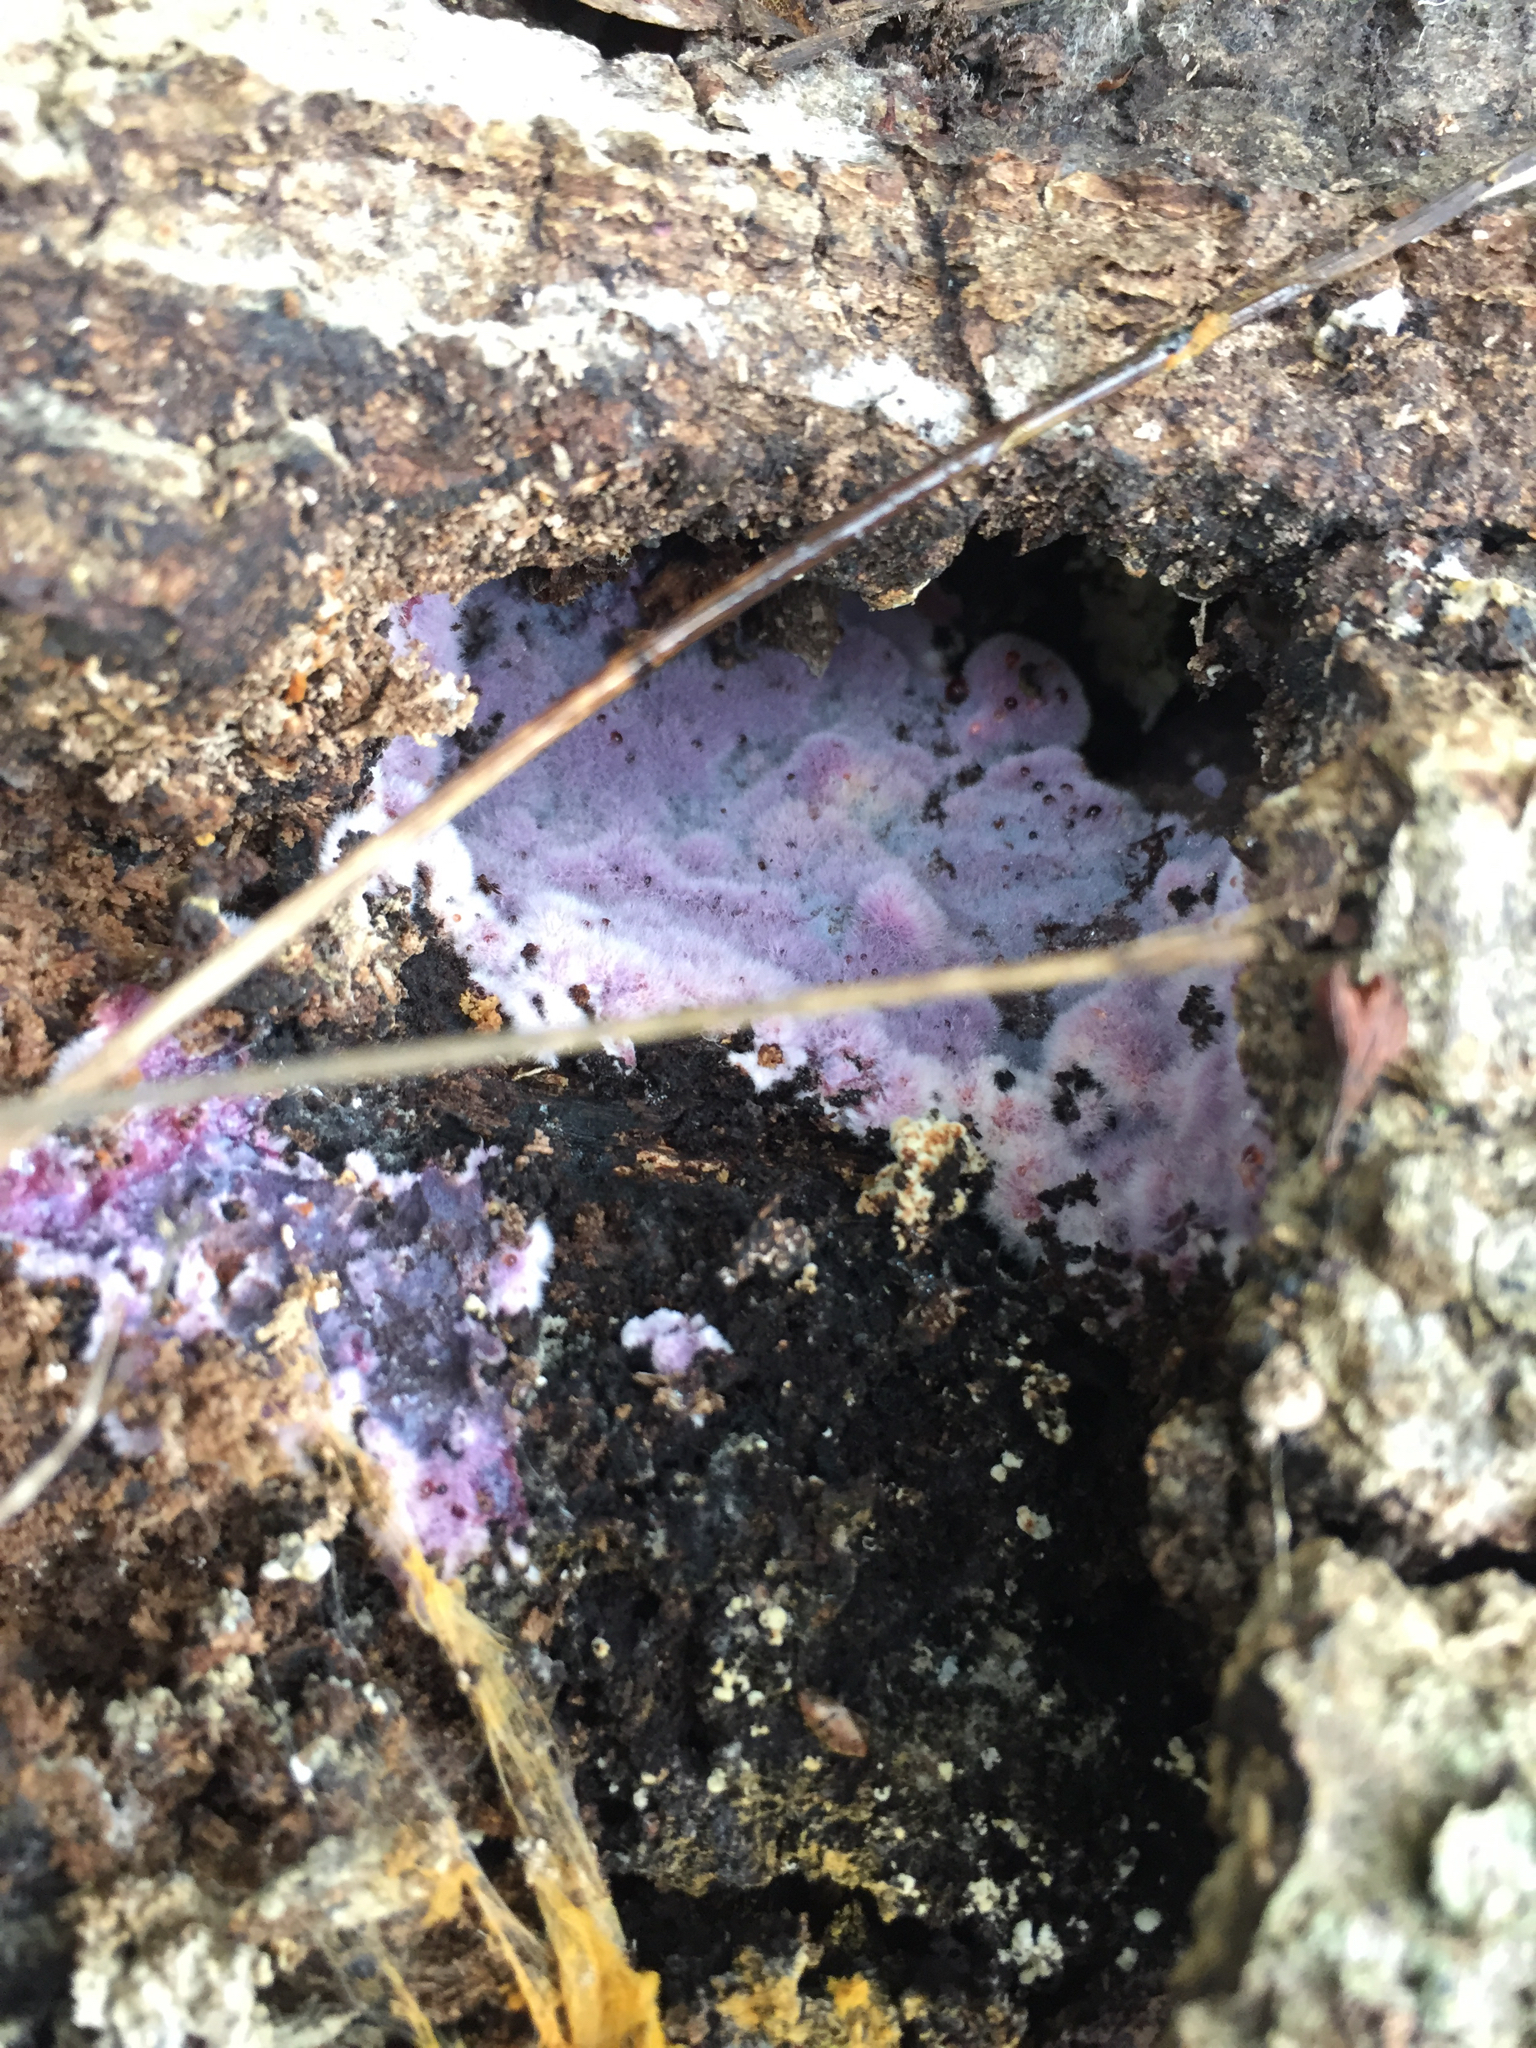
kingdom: Fungi
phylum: Basidiomycota
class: Agaricomycetes
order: Corticiales
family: Punctulariaceae
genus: Punctularia
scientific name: Punctularia atropurpurascens
